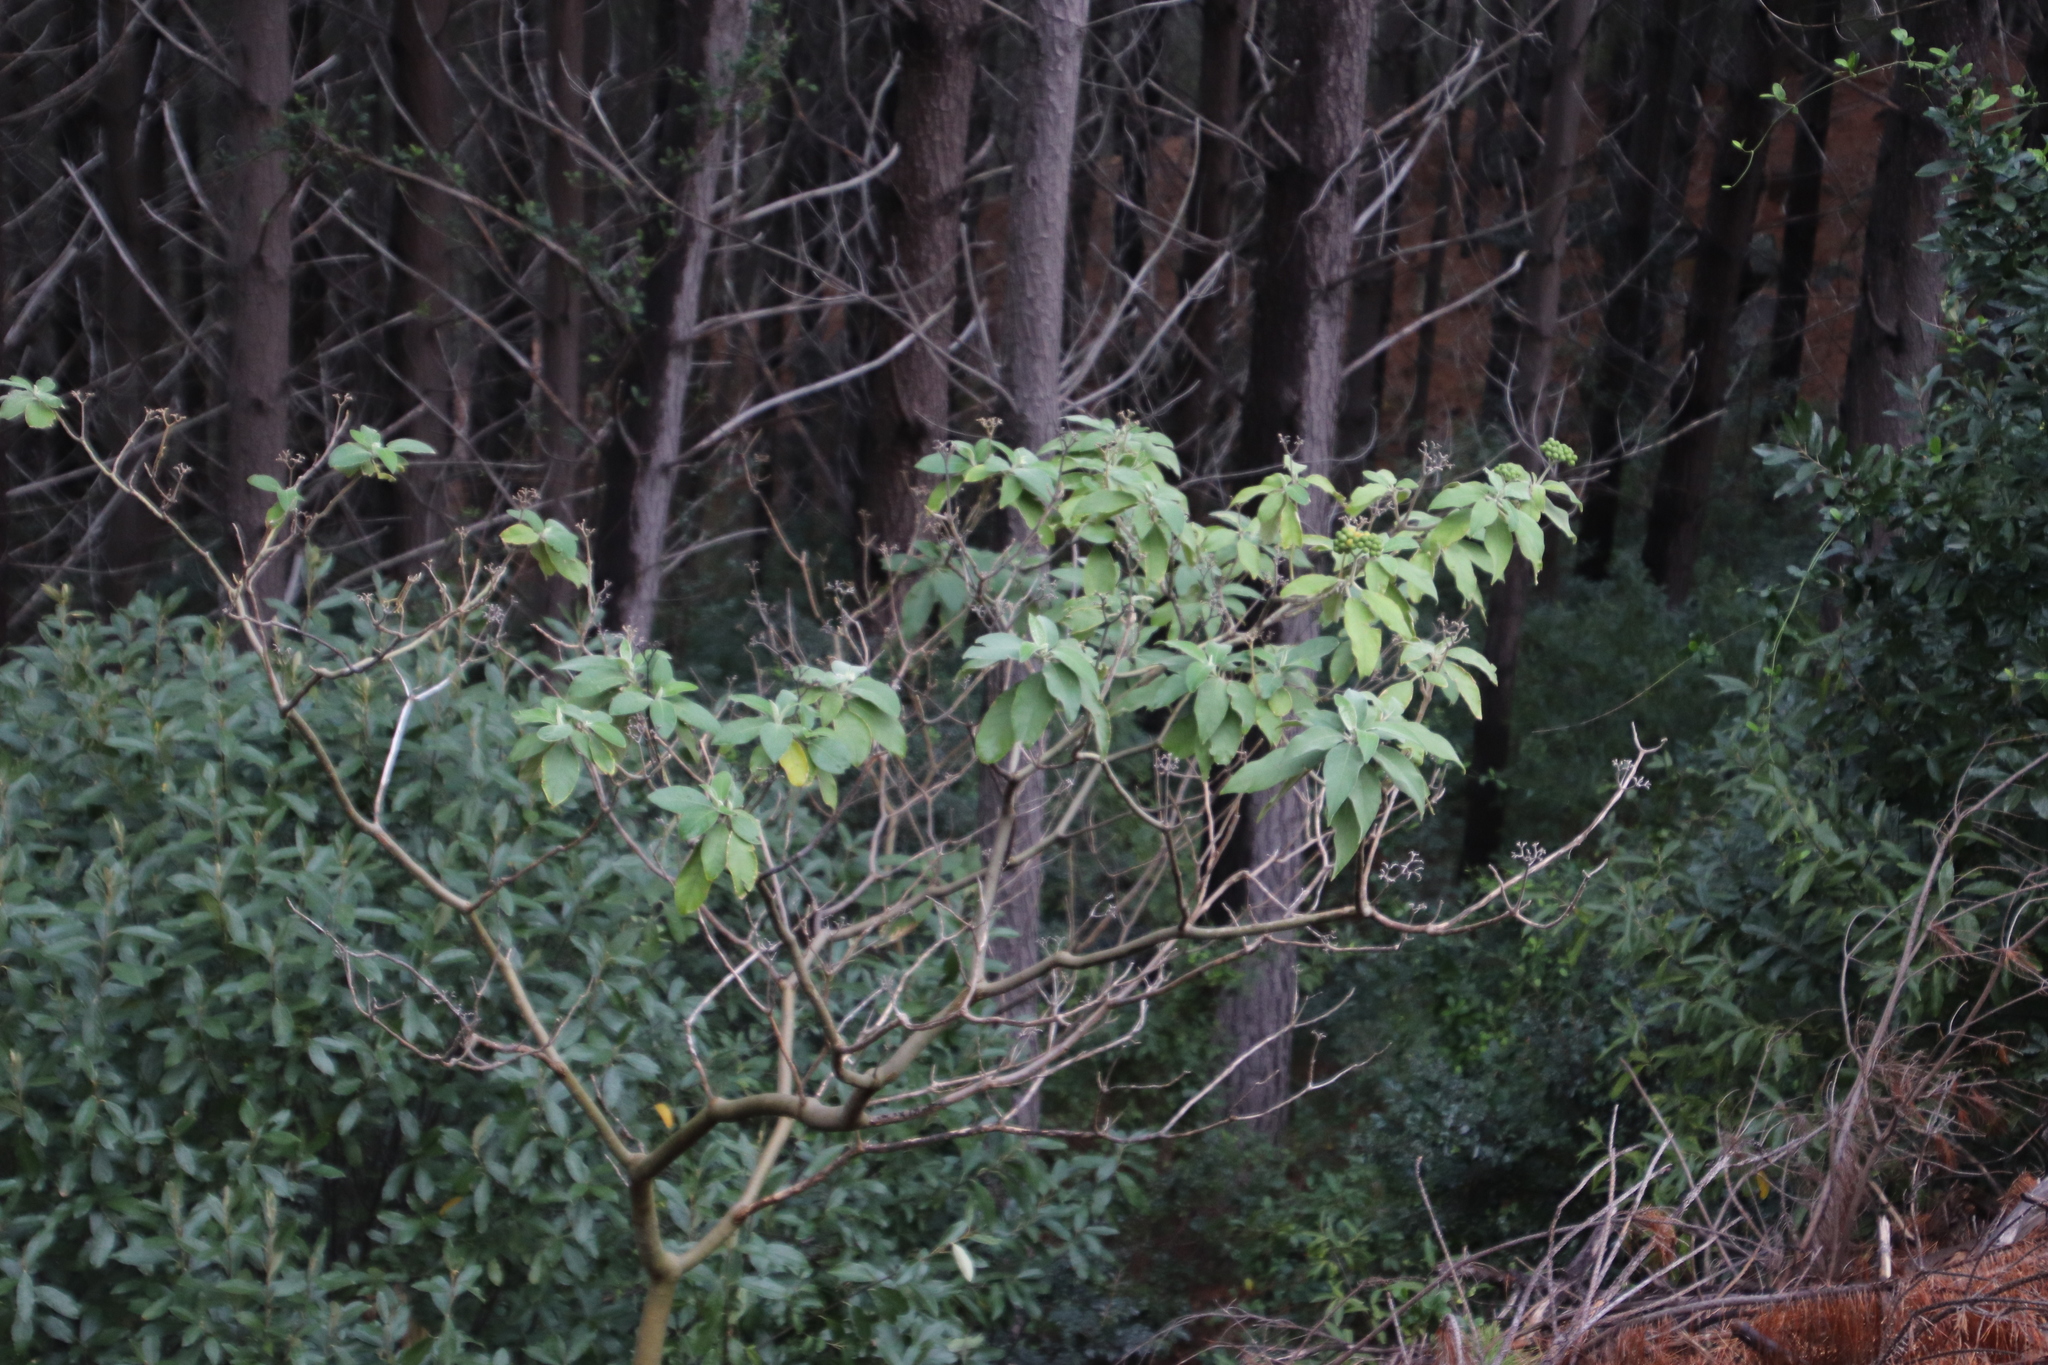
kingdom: Plantae
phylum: Tracheophyta
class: Magnoliopsida
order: Solanales
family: Solanaceae
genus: Solanum
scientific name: Solanum mauritianum
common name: Earleaf nightshade
